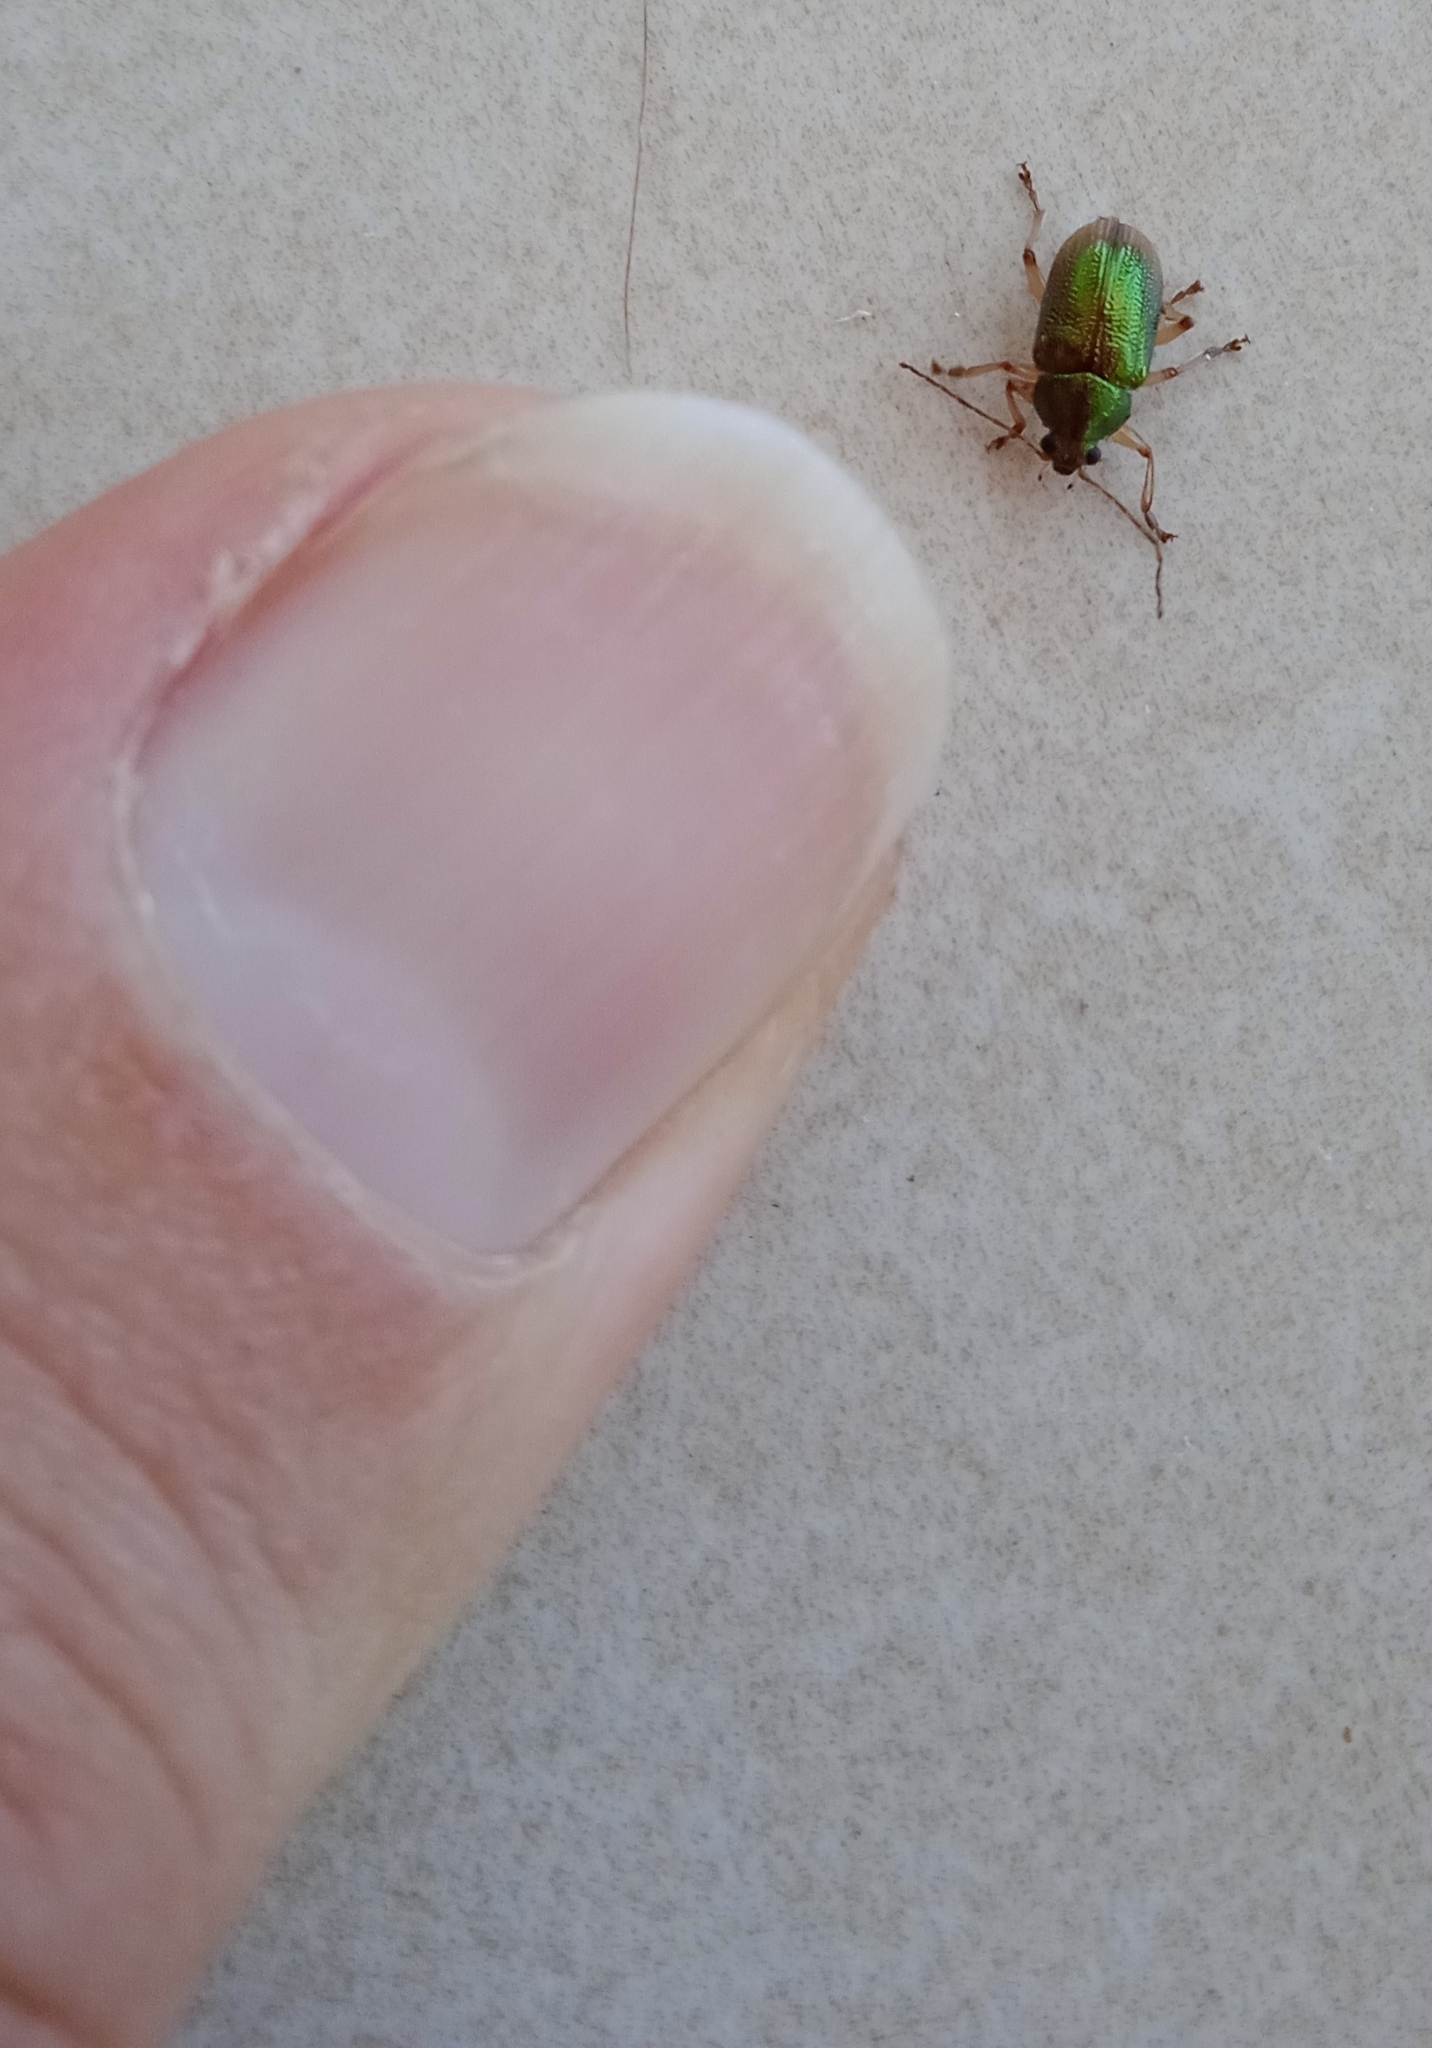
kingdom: Animalia
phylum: Arthropoda
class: Insecta
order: Coleoptera
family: Chrysomelidae
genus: Colaspis
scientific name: Colaspis aerea
